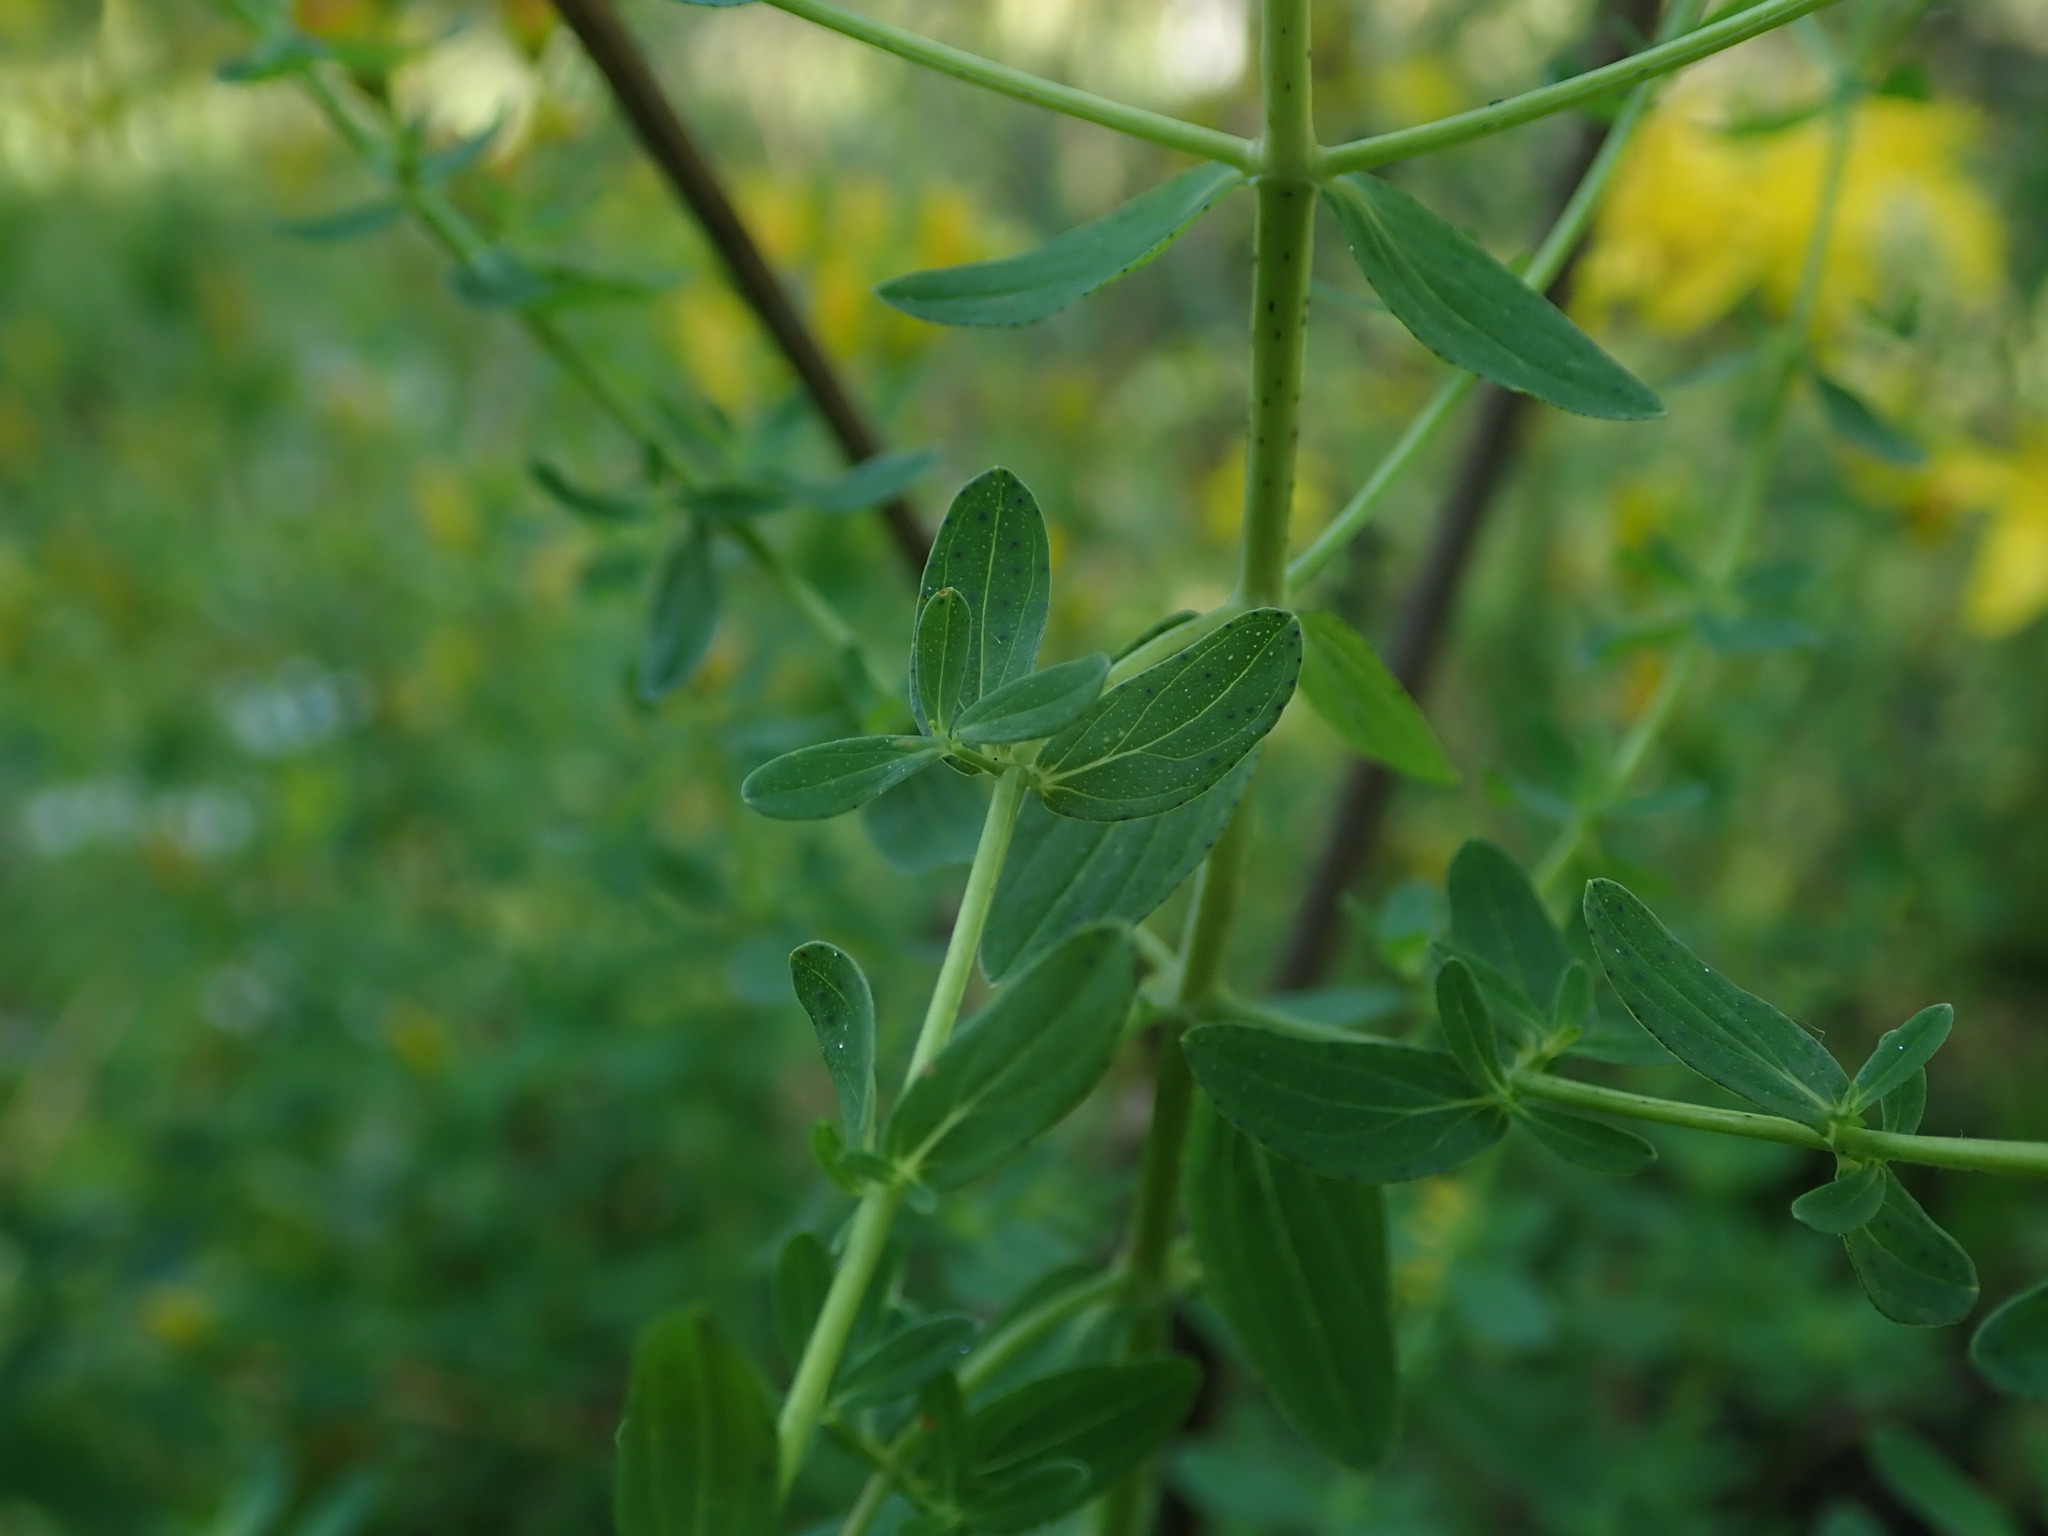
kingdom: Plantae
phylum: Tracheophyta
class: Magnoliopsida
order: Malpighiales
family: Hypericaceae
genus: Hypericum
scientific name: Hypericum perforatum
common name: Common st. johnswort
